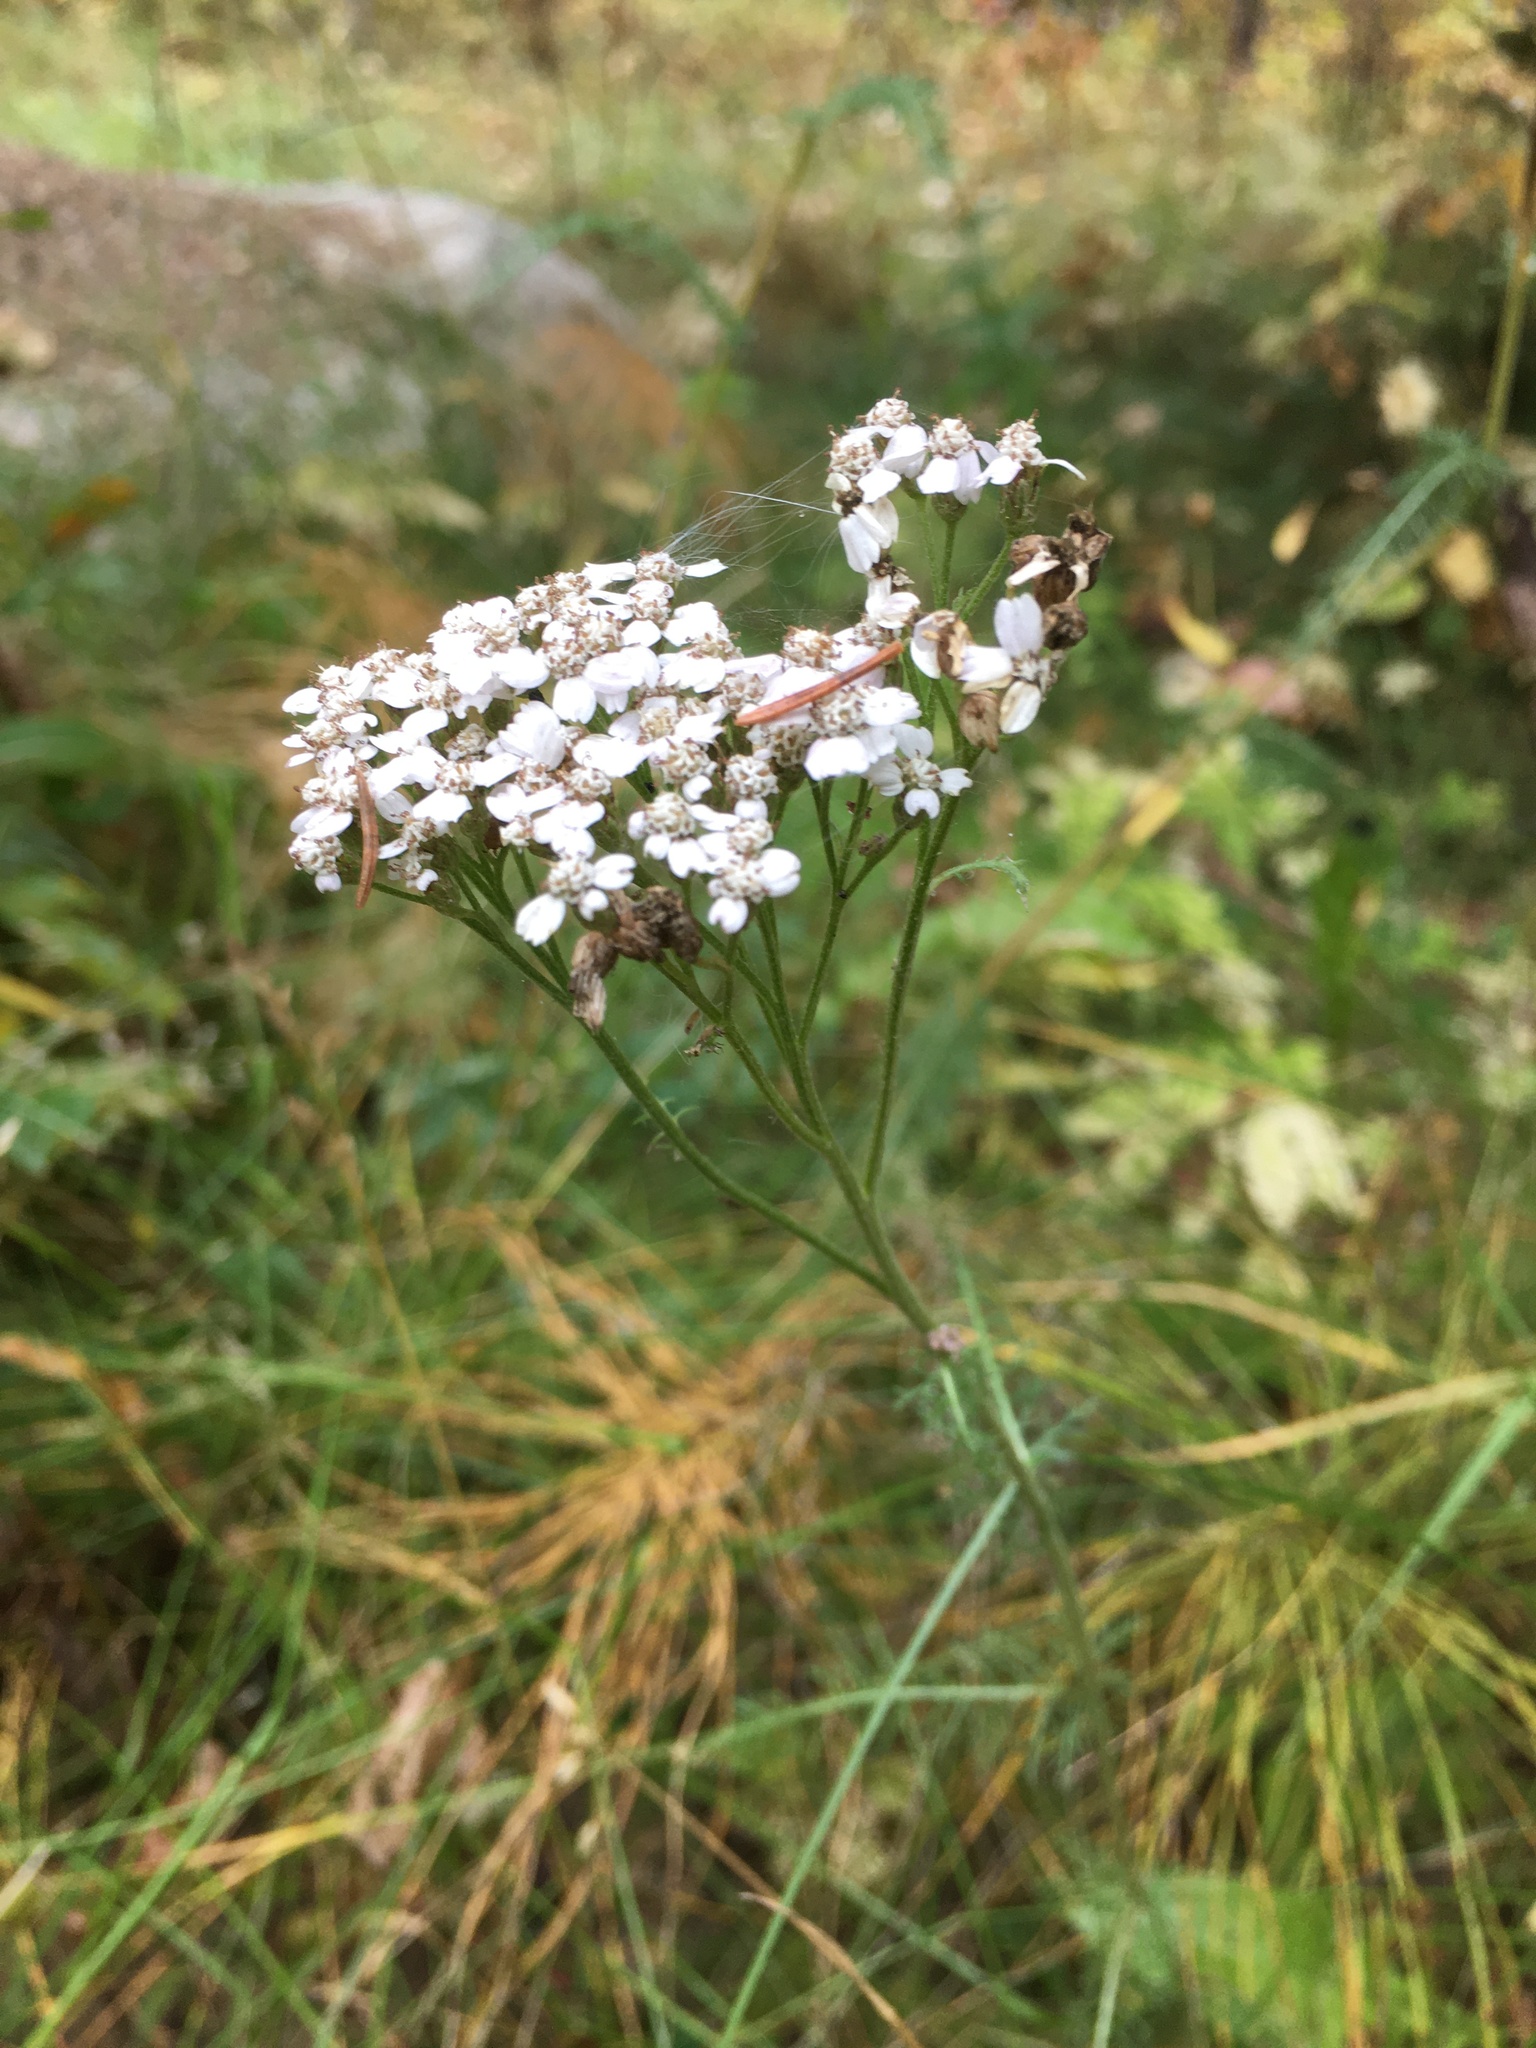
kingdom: Plantae
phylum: Tracheophyta
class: Magnoliopsida
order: Asterales
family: Asteraceae
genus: Achillea
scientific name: Achillea millefolium
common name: Yarrow
